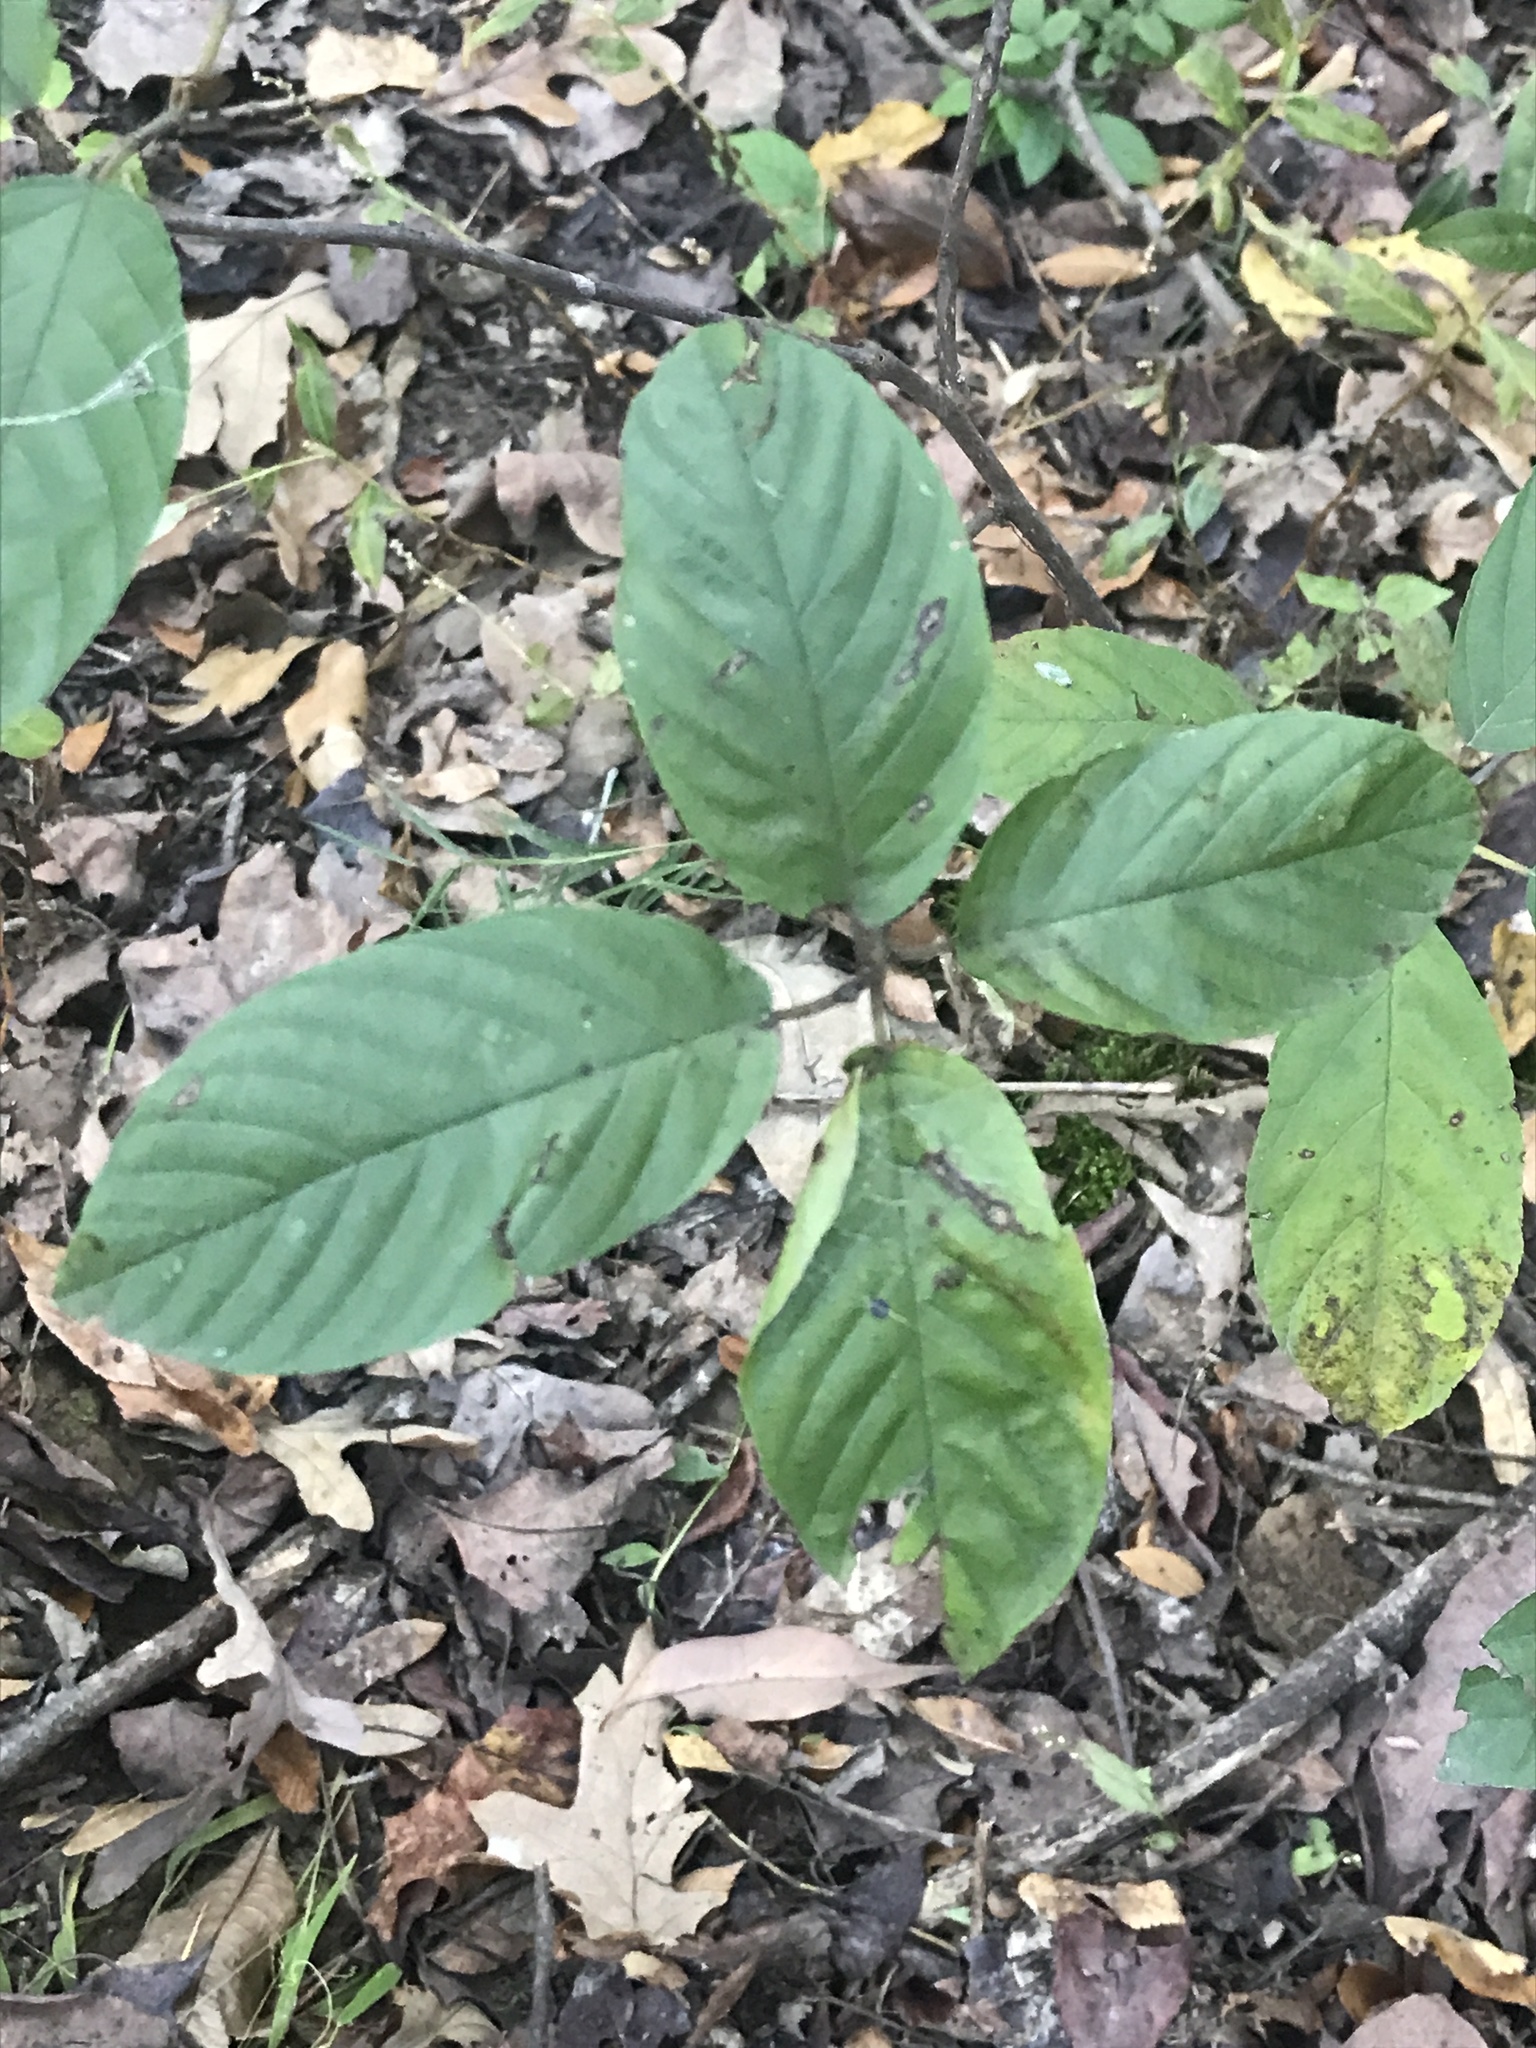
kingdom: Plantae
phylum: Tracheophyta
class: Magnoliopsida
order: Rosales
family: Rhamnaceae
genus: Frangula
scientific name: Frangula caroliniana
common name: Carolina buckthorn
